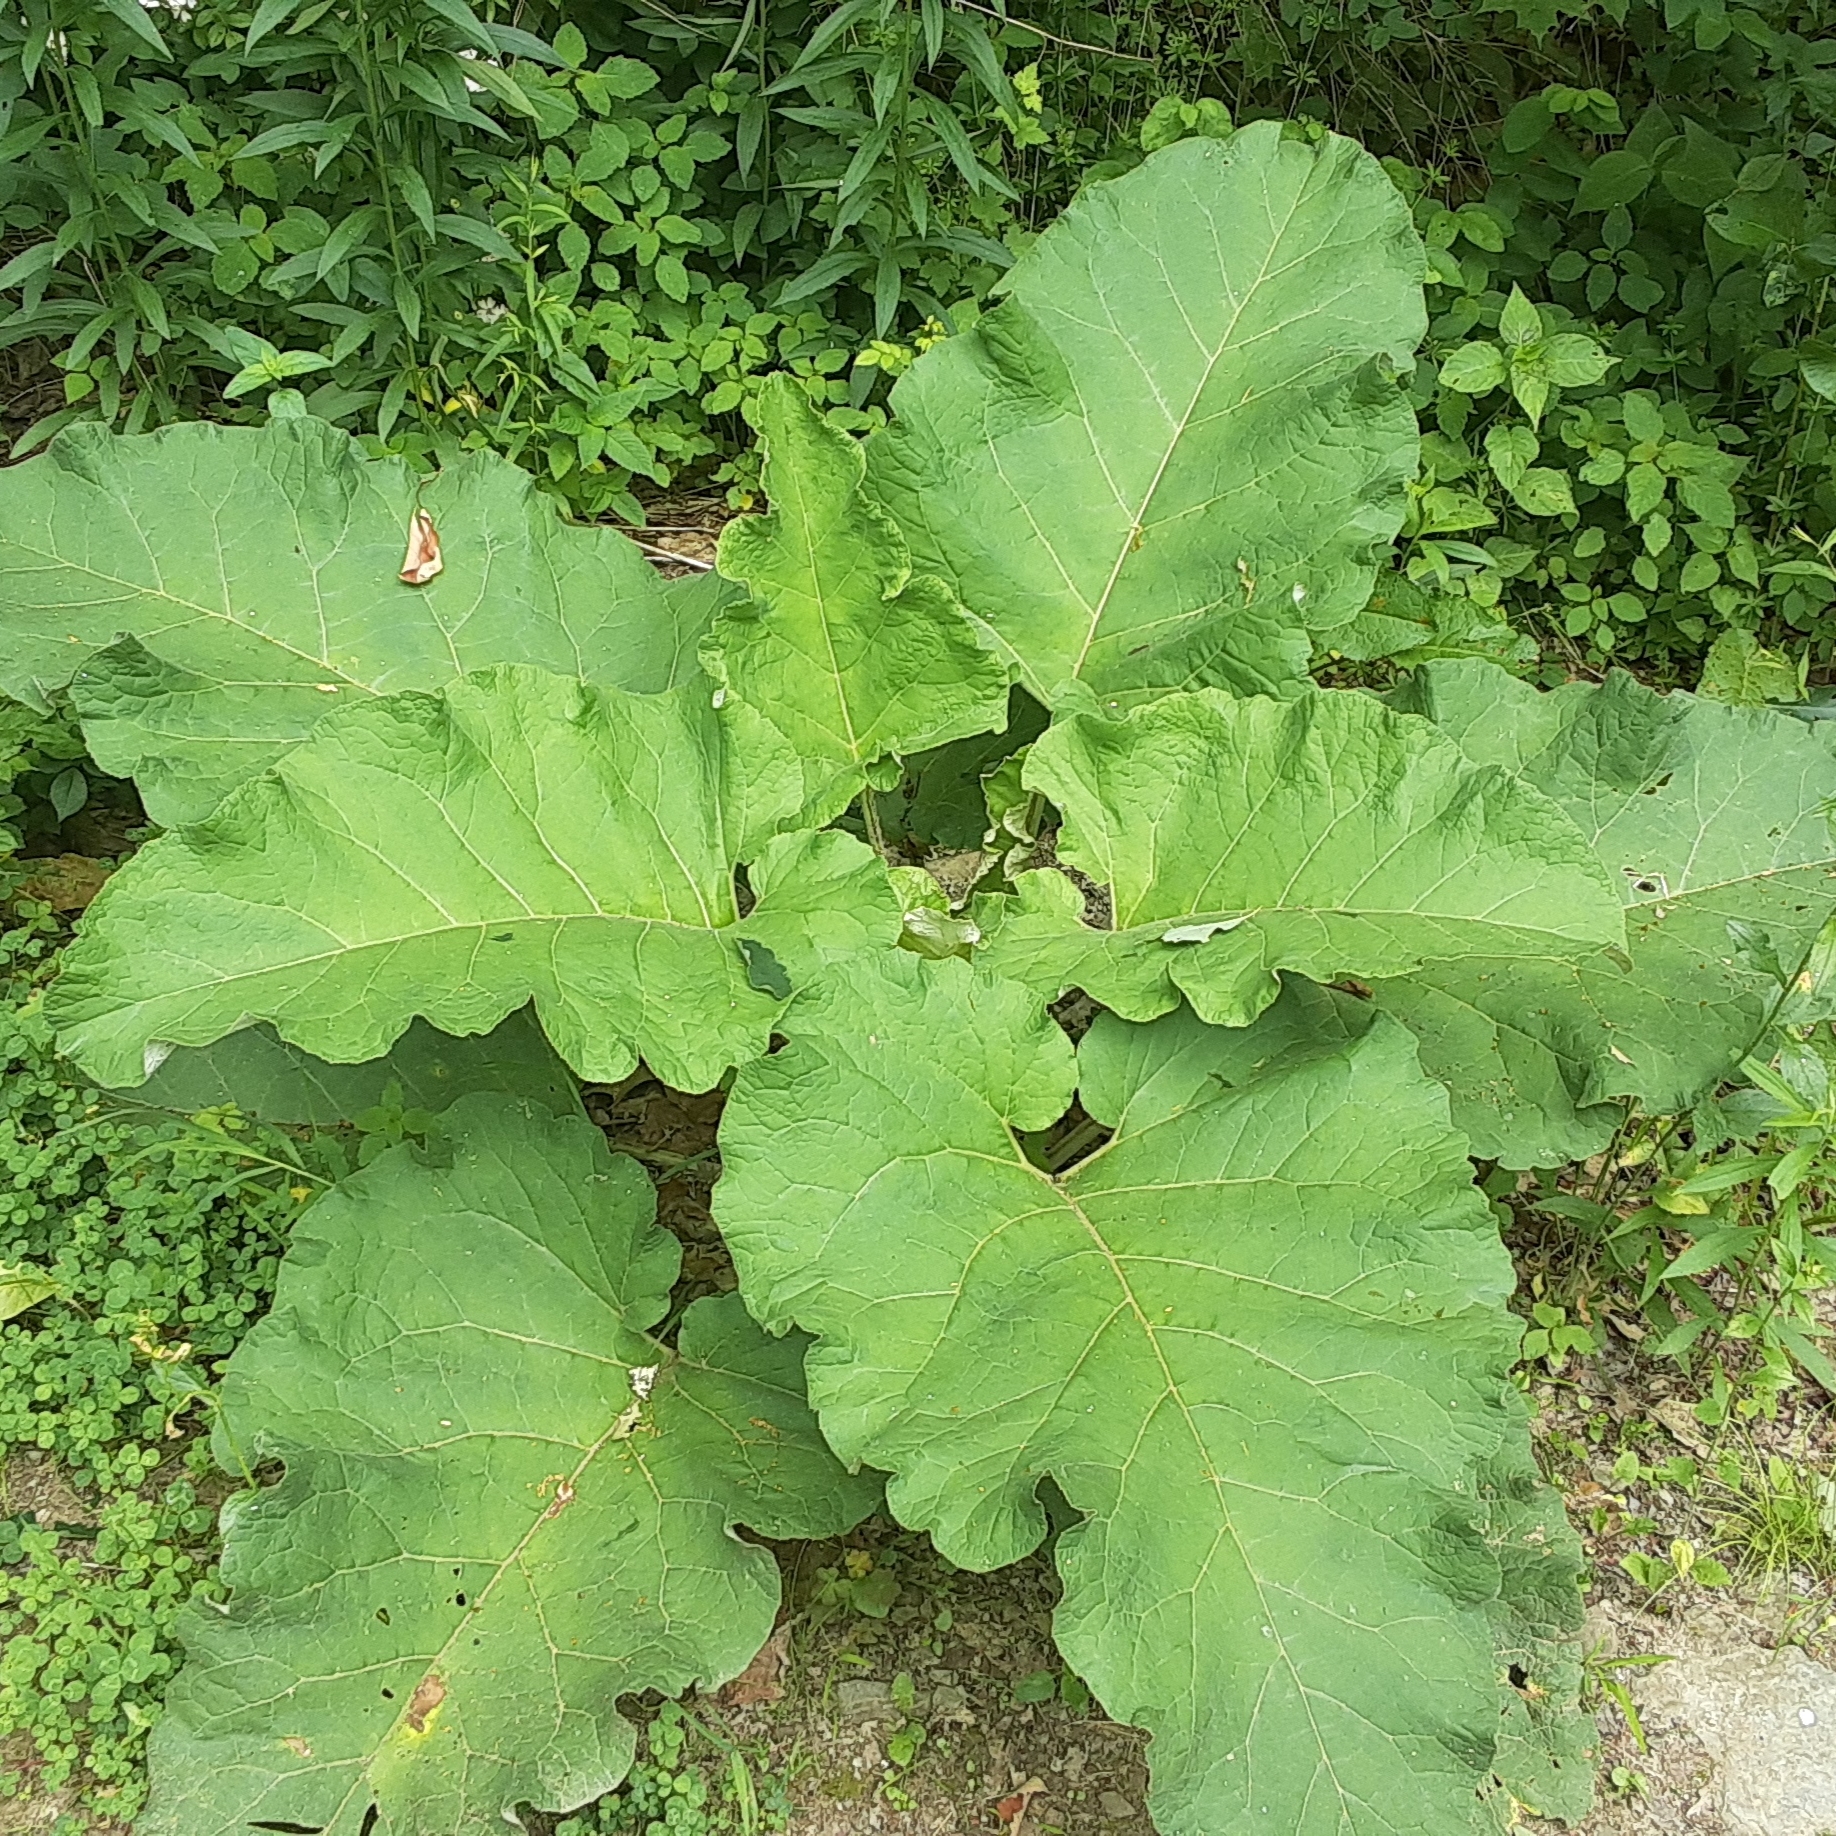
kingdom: Plantae
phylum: Tracheophyta
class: Magnoliopsida
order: Asterales
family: Asteraceae
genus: Arctium
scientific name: Arctium
